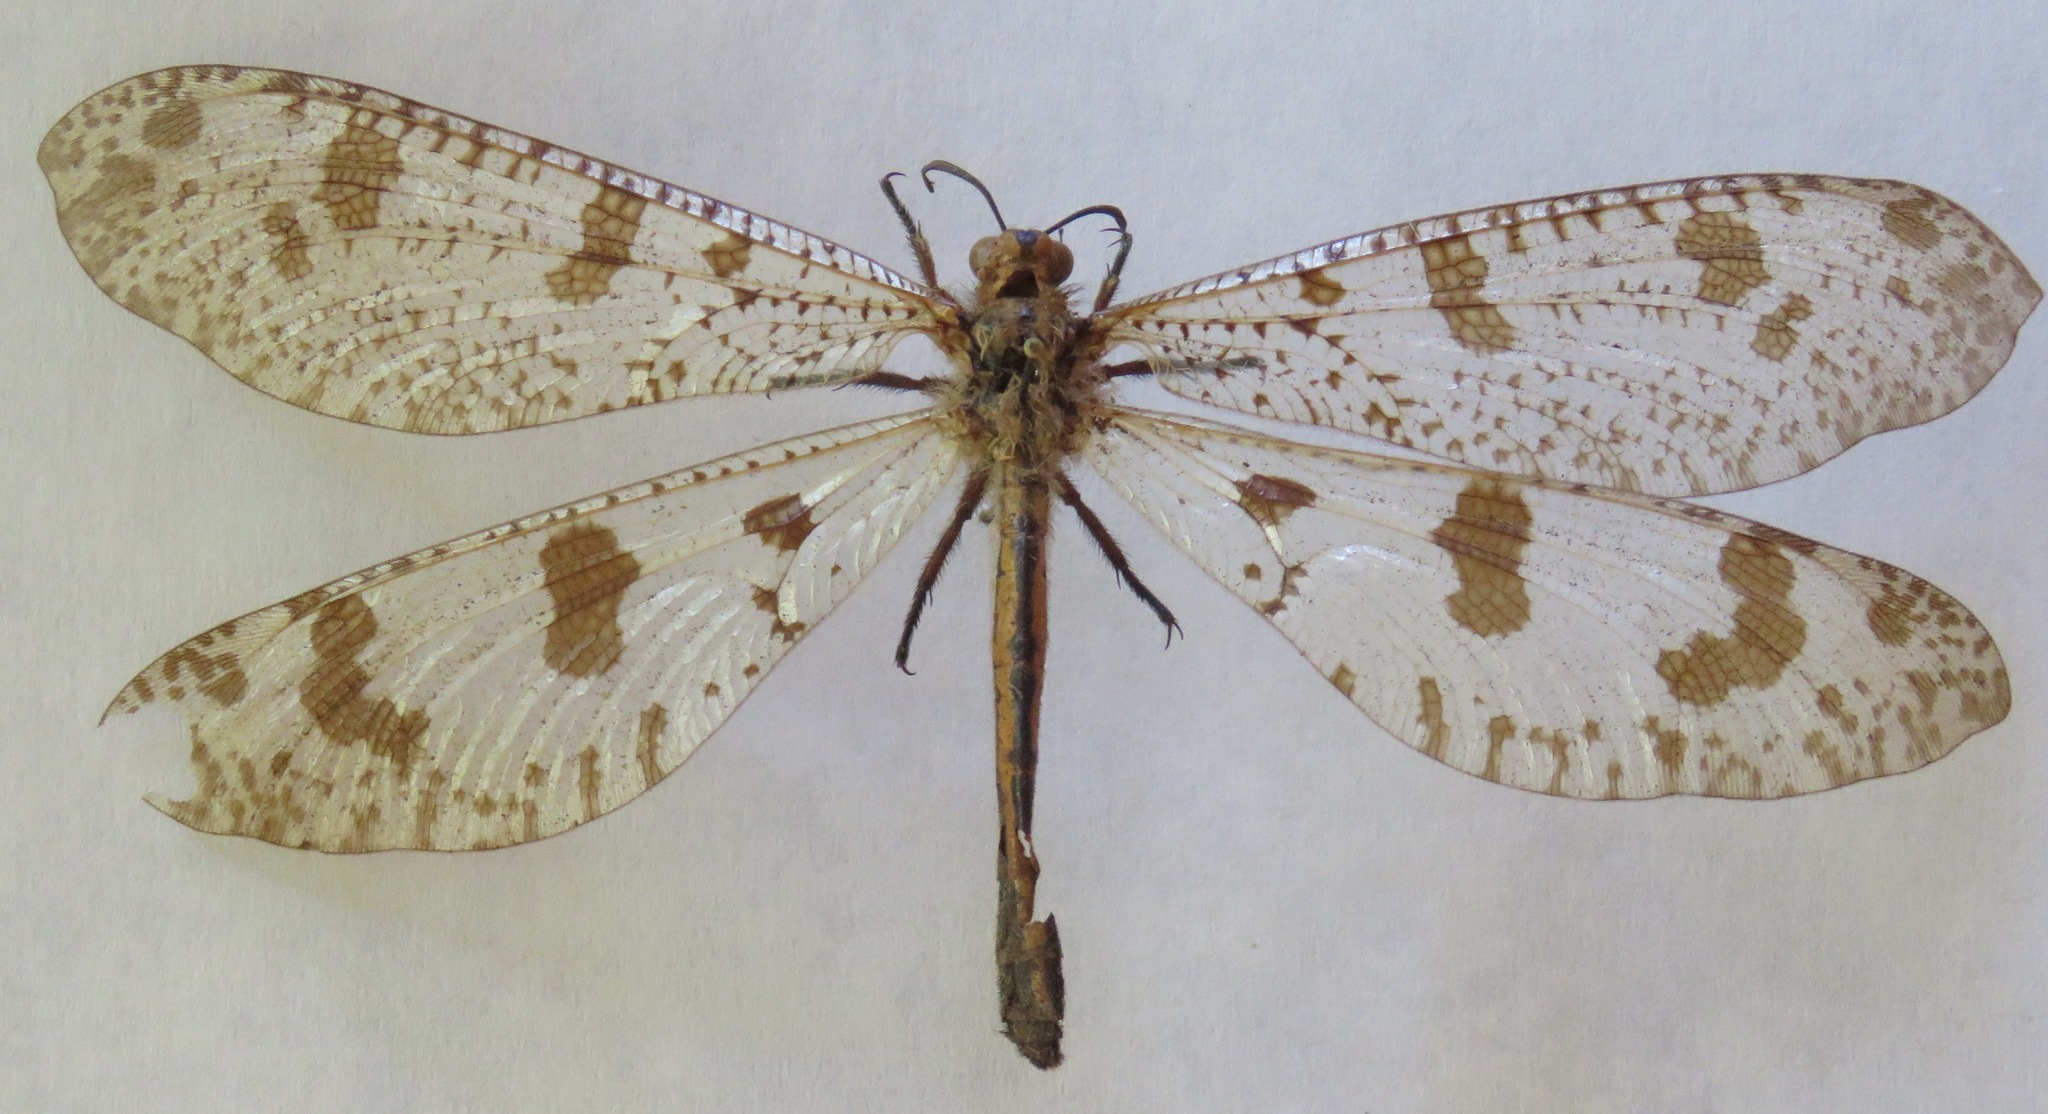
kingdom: Animalia
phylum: Arthropoda
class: Insecta
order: Neuroptera
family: Myrmeleontidae
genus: Palpares
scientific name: Palpares libelluloides
